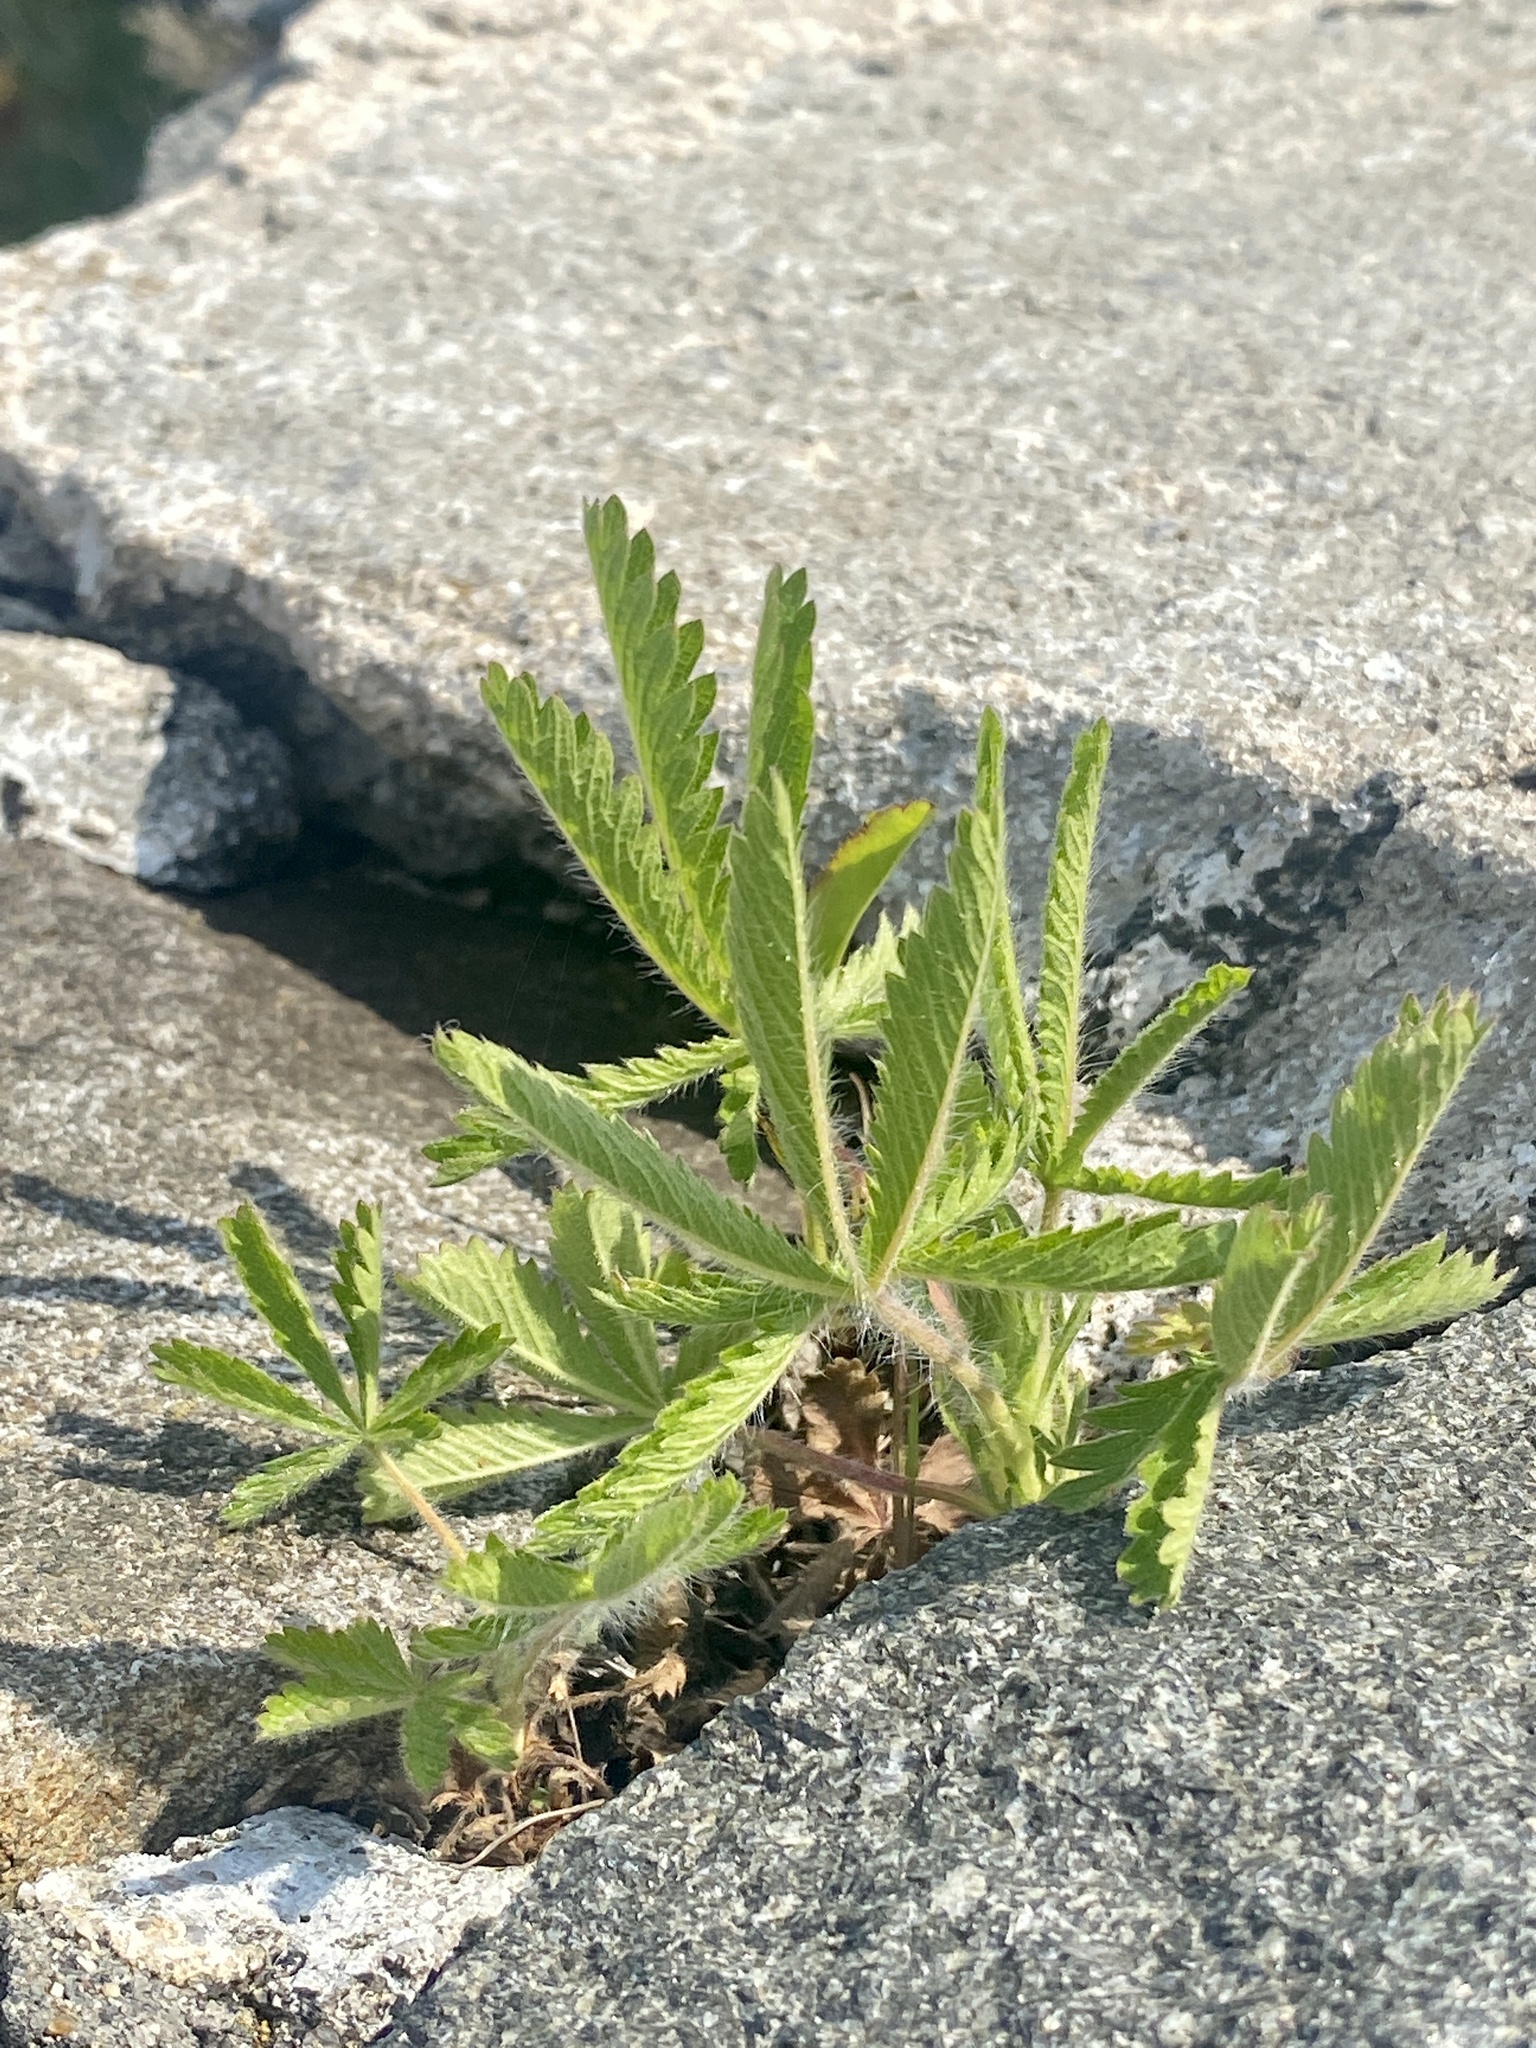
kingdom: Plantae
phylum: Tracheophyta
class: Magnoliopsida
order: Rosales
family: Rosaceae
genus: Potentilla
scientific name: Potentilla recta
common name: Sulphur cinquefoil
